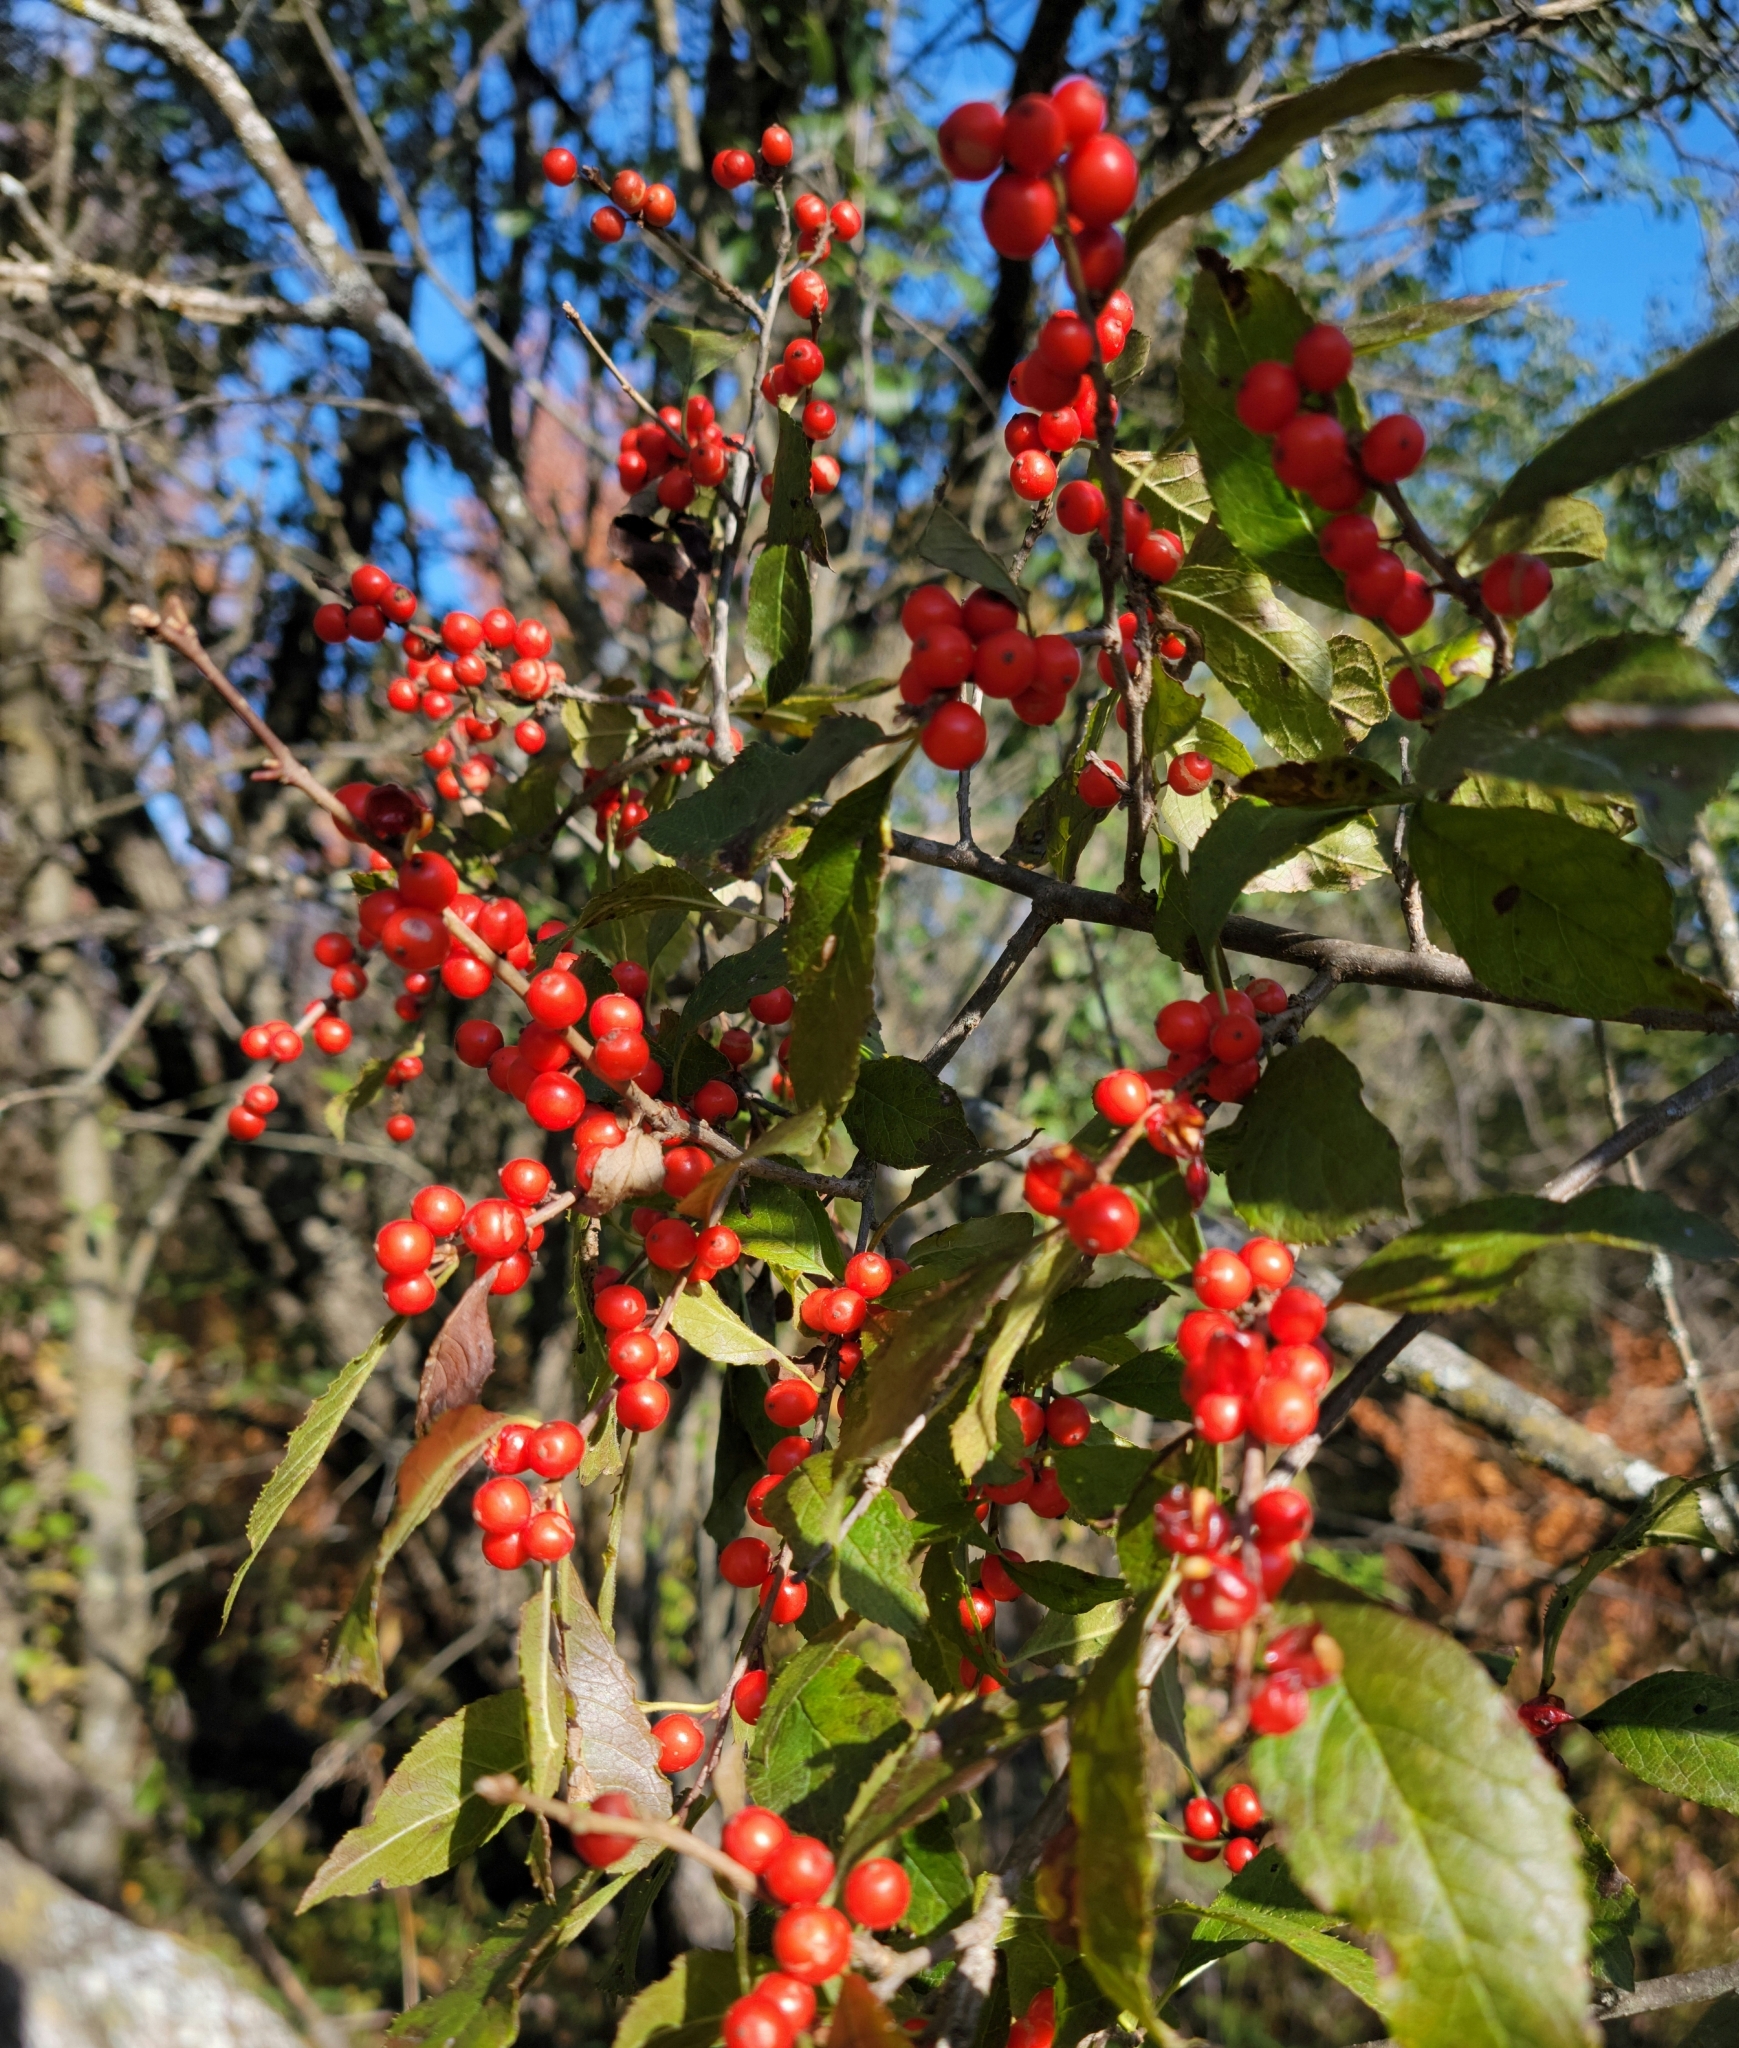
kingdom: Plantae
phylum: Tracheophyta
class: Magnoliopsida
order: Aquifoliales
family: Aquifoliaceae
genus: Ilex
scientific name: Ilex verticillata
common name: Virginia winterberry
